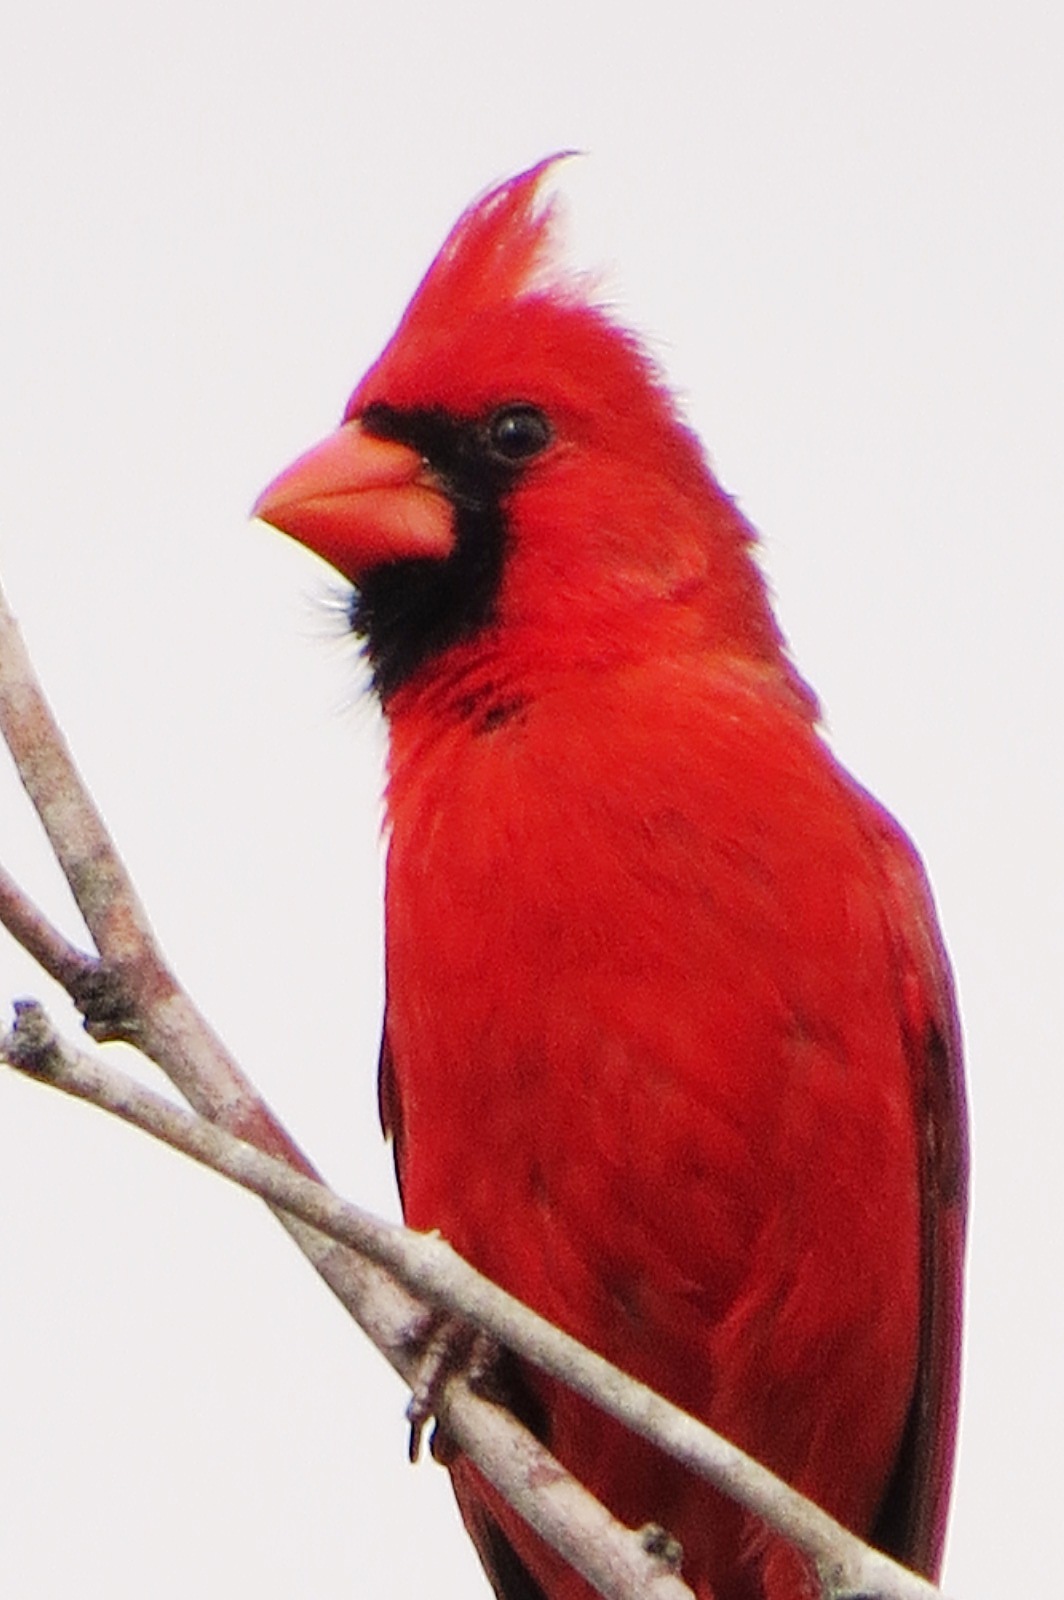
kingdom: Animalia
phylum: Chordata
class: Aves
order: Passeriformes
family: Cardinalidae
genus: Cardinalis
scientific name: Cardinalis cardinalis
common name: Northern cardinal
